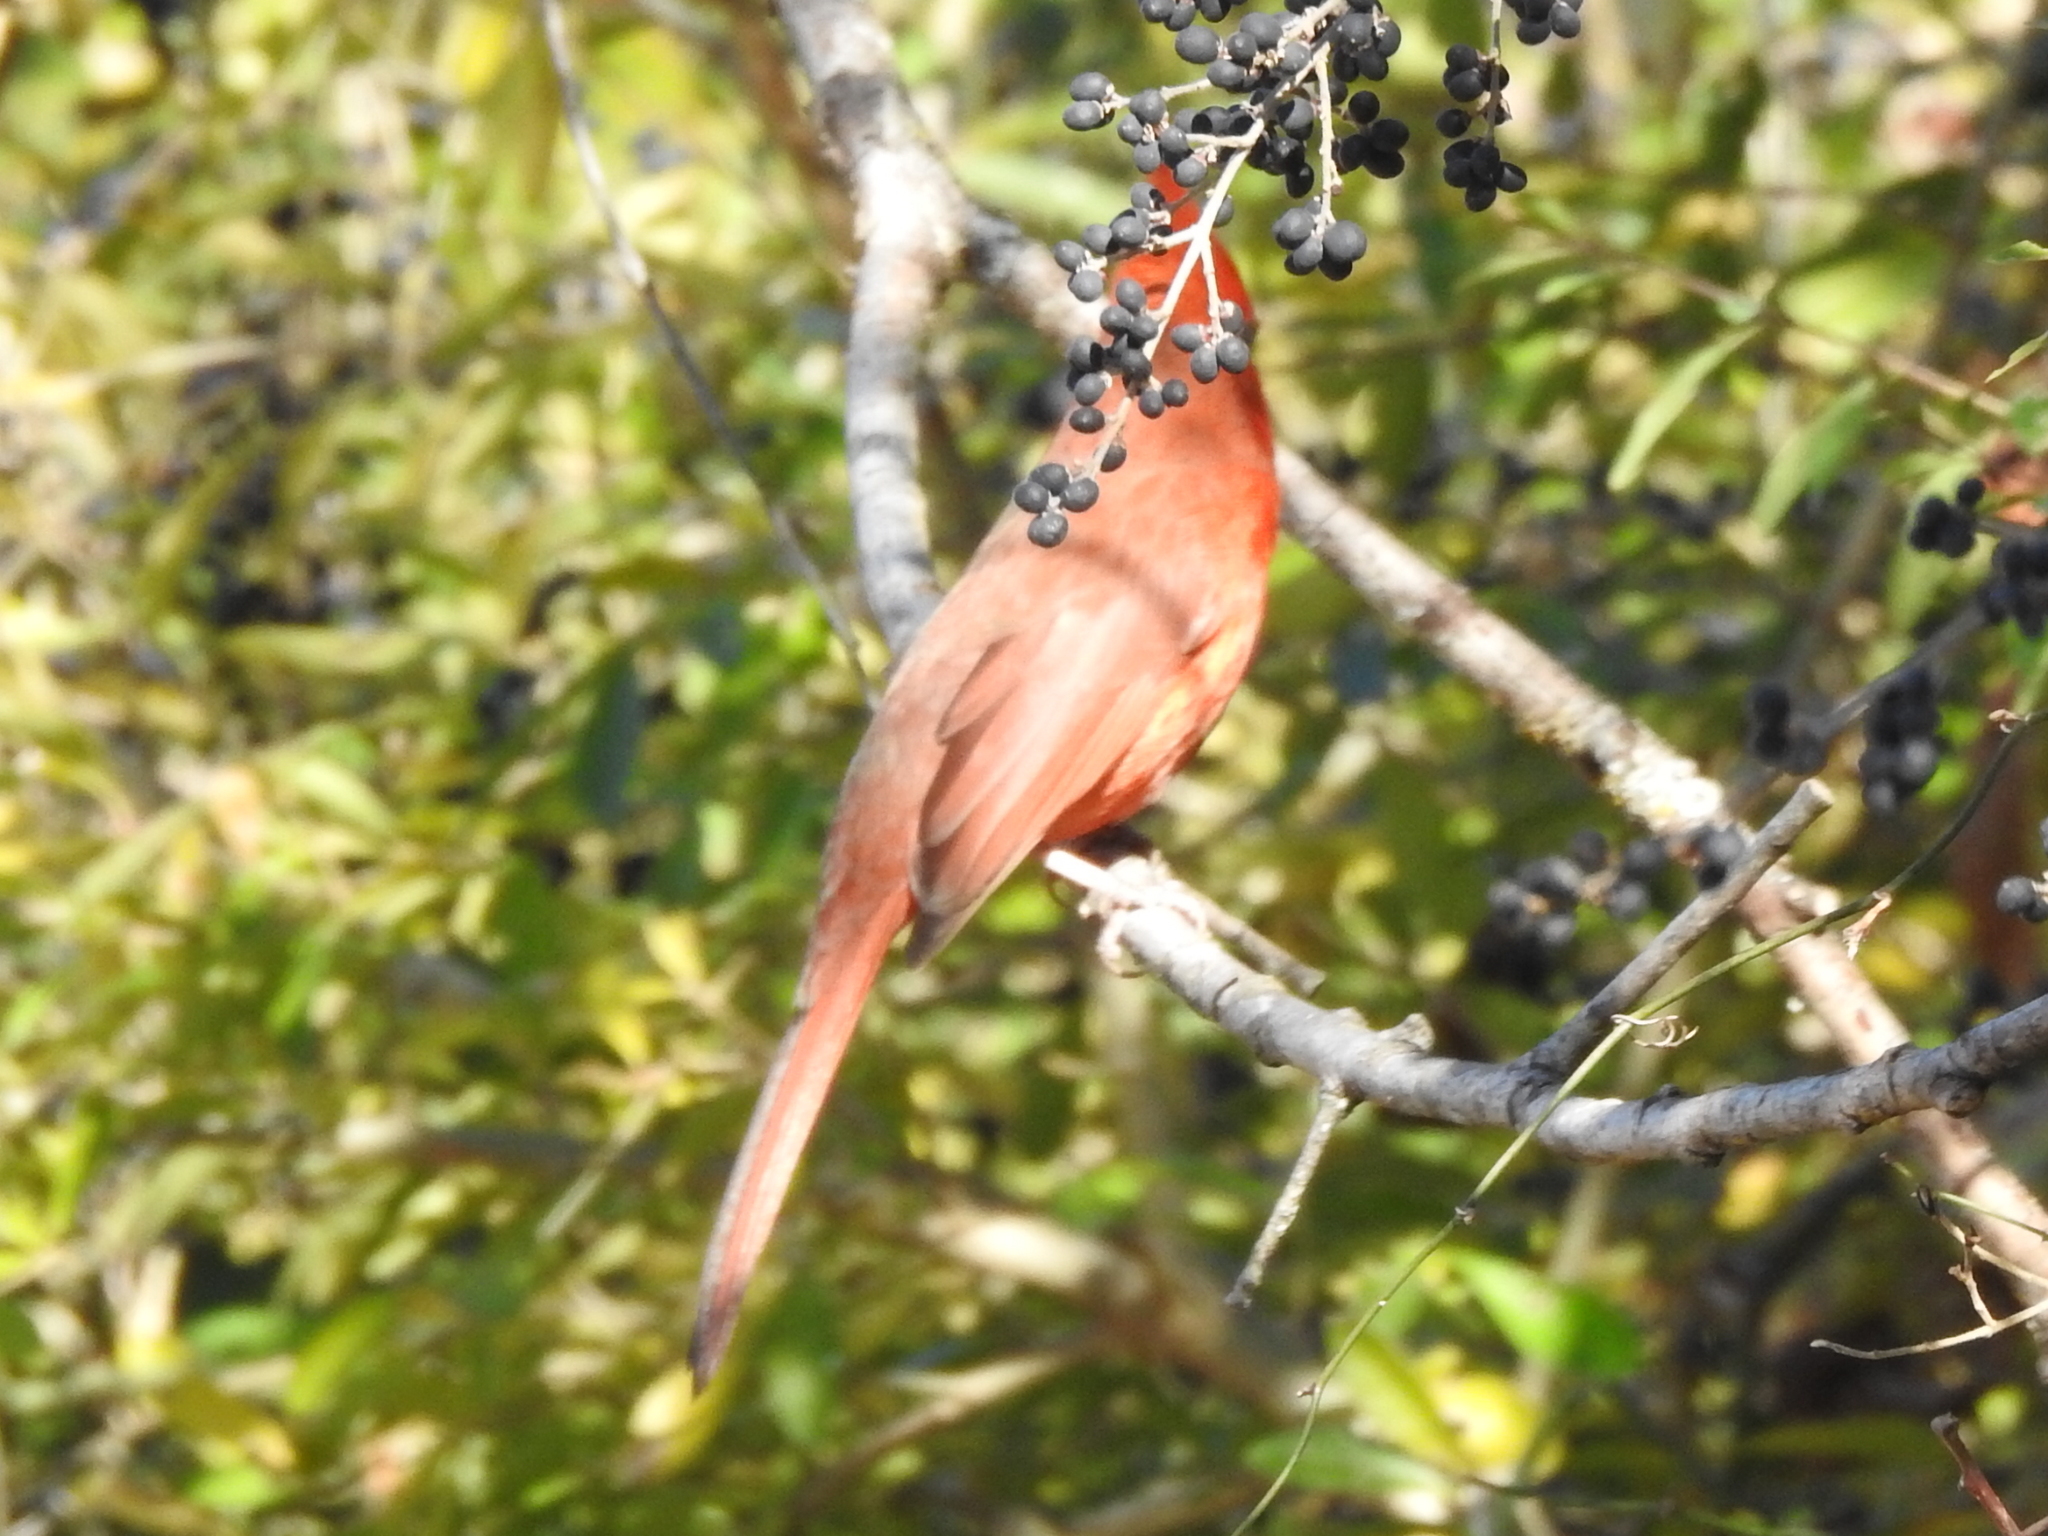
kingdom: Animalia
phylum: Chordata
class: Aves
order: Passeriformes
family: Cardinalidae
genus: Cardinalis
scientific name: Cardinalis cardinalis
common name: Northern cardinal
